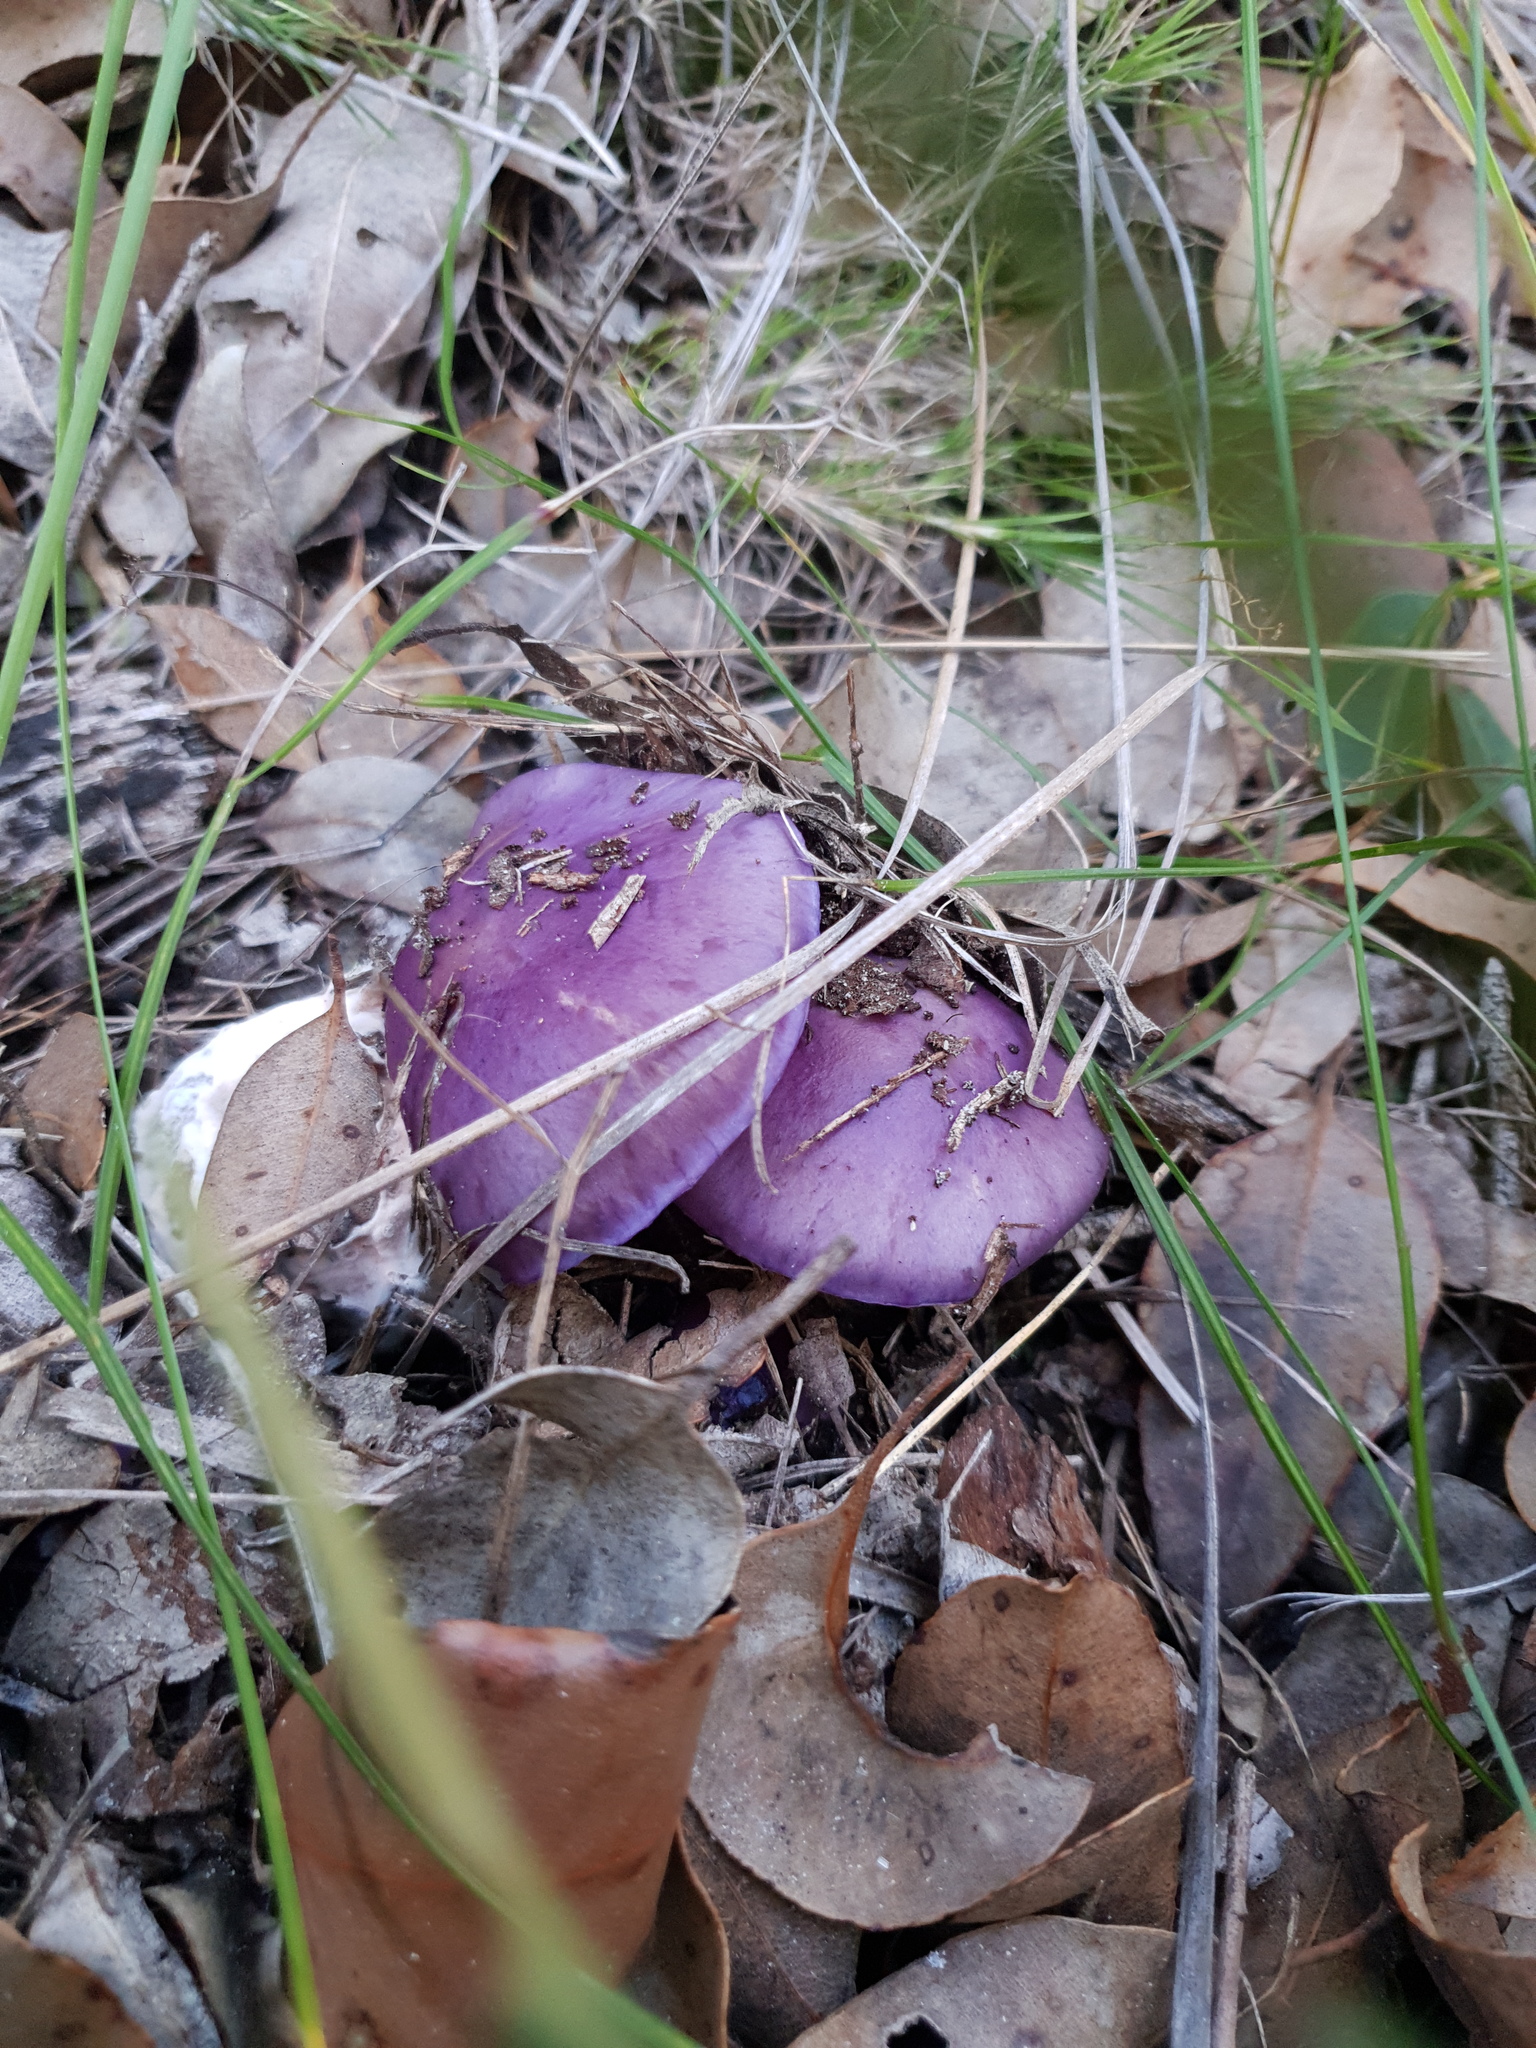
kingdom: Fungi
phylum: Basidiomycota
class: Agaricomycetes
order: Agaricales
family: Cortinariaceae
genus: Cortinarius
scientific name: Cortinarius archeri
